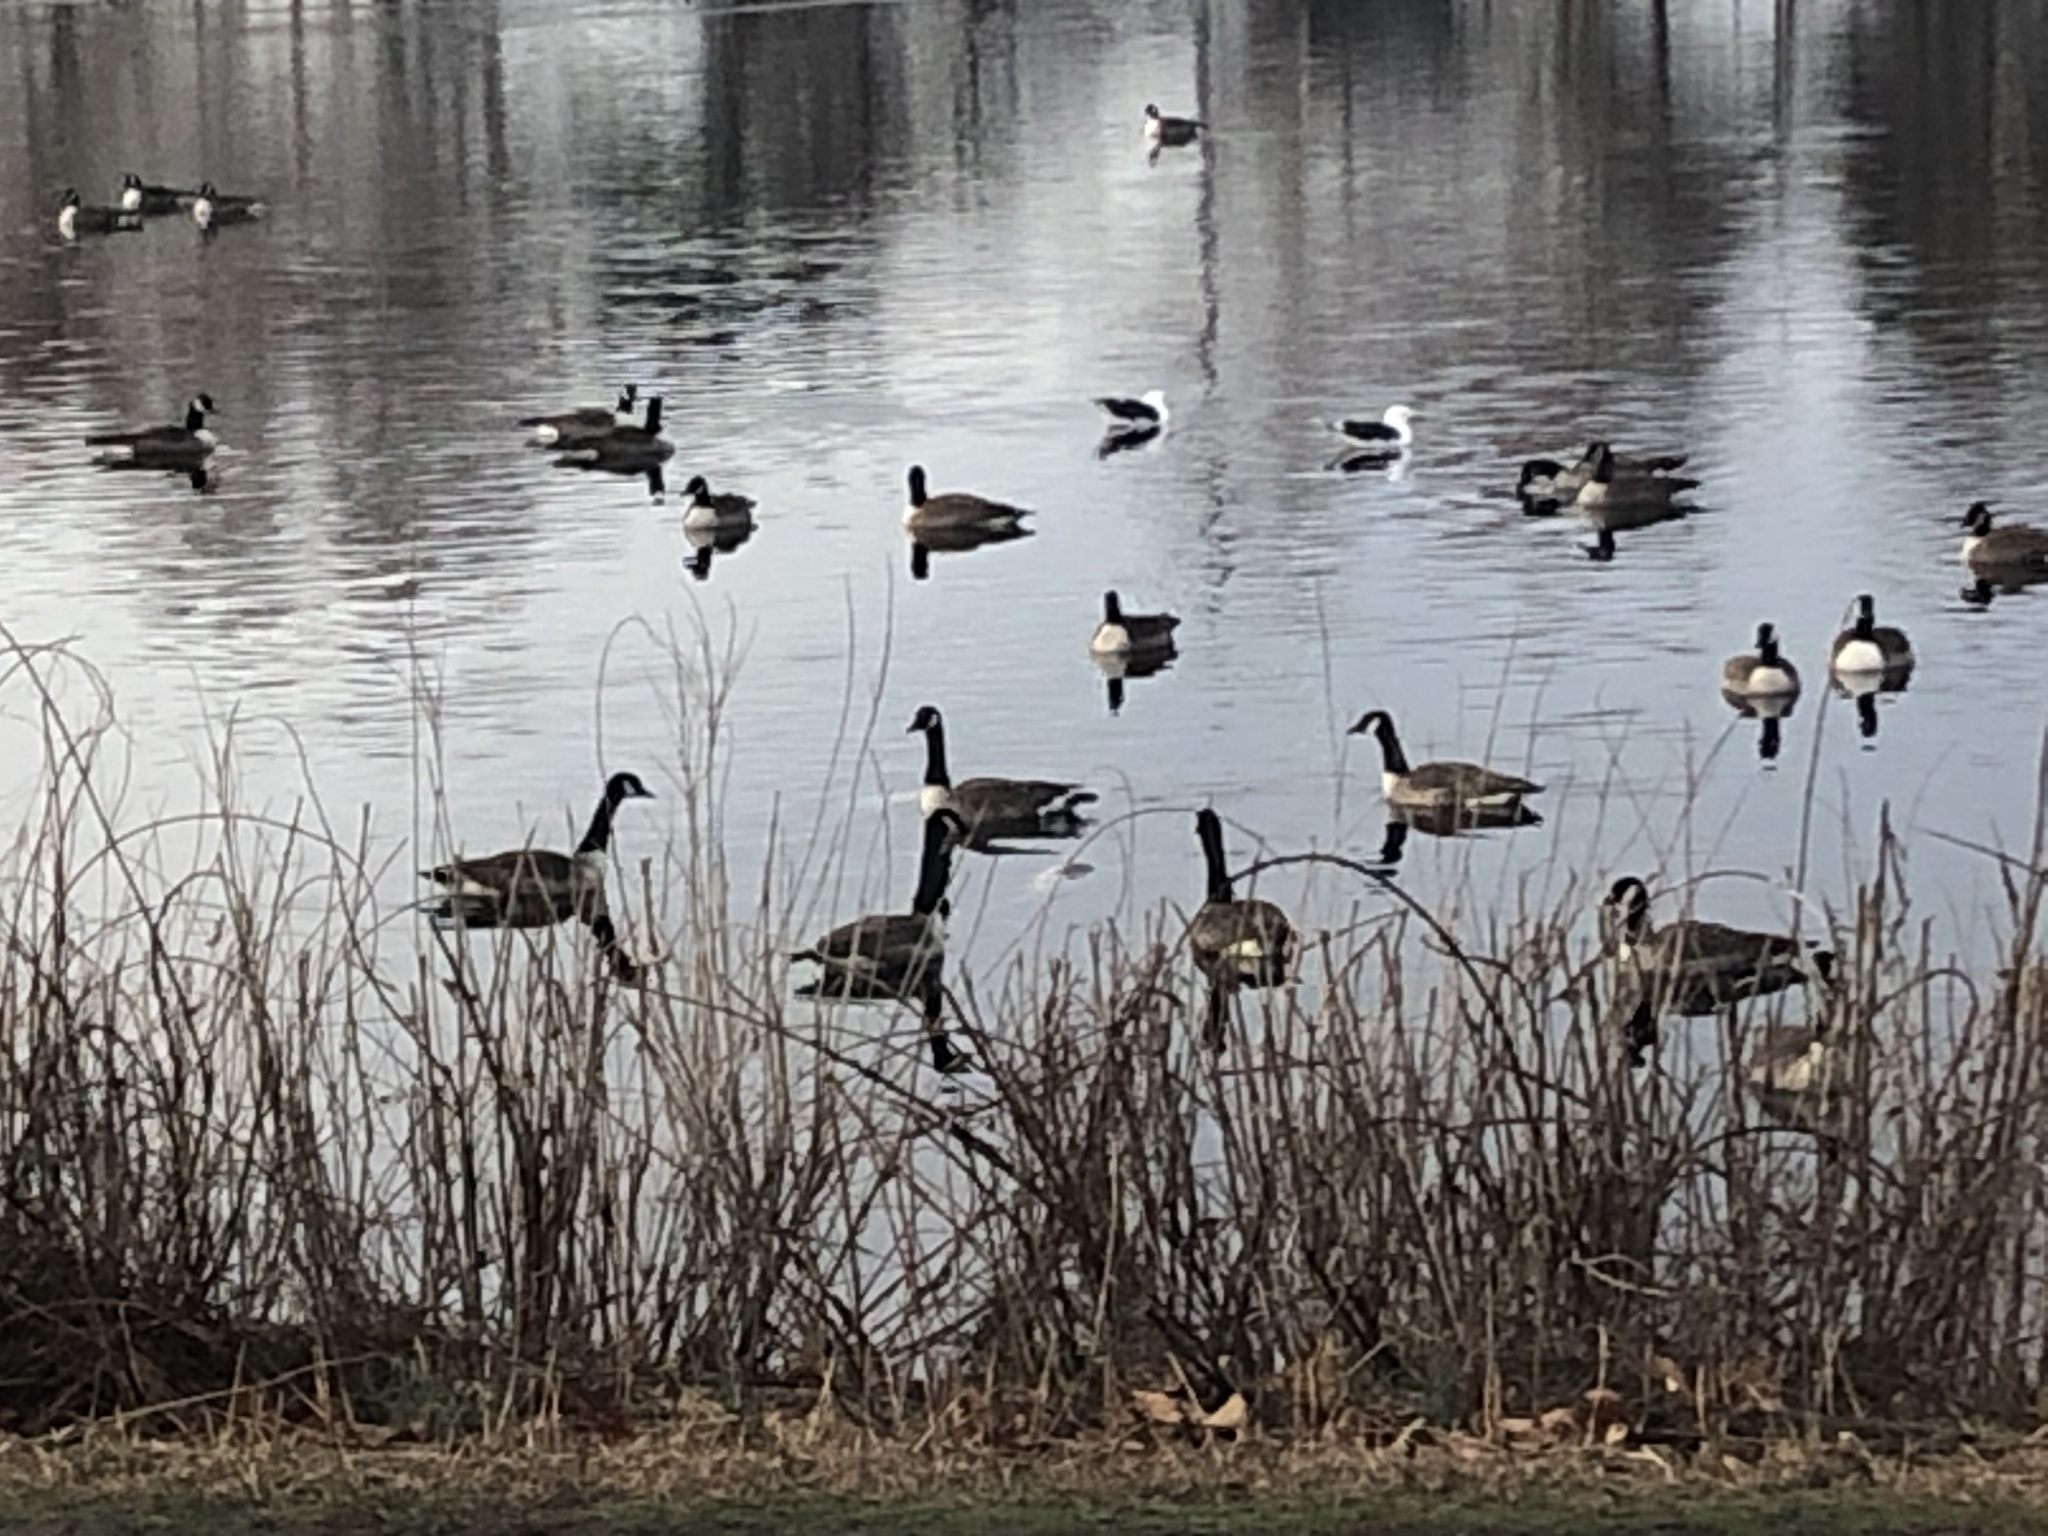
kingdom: Animalia
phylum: Chordata
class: Aves
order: Anseriformes
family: Anatidae
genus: Branta
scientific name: Branta canadensis
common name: Canada goose
